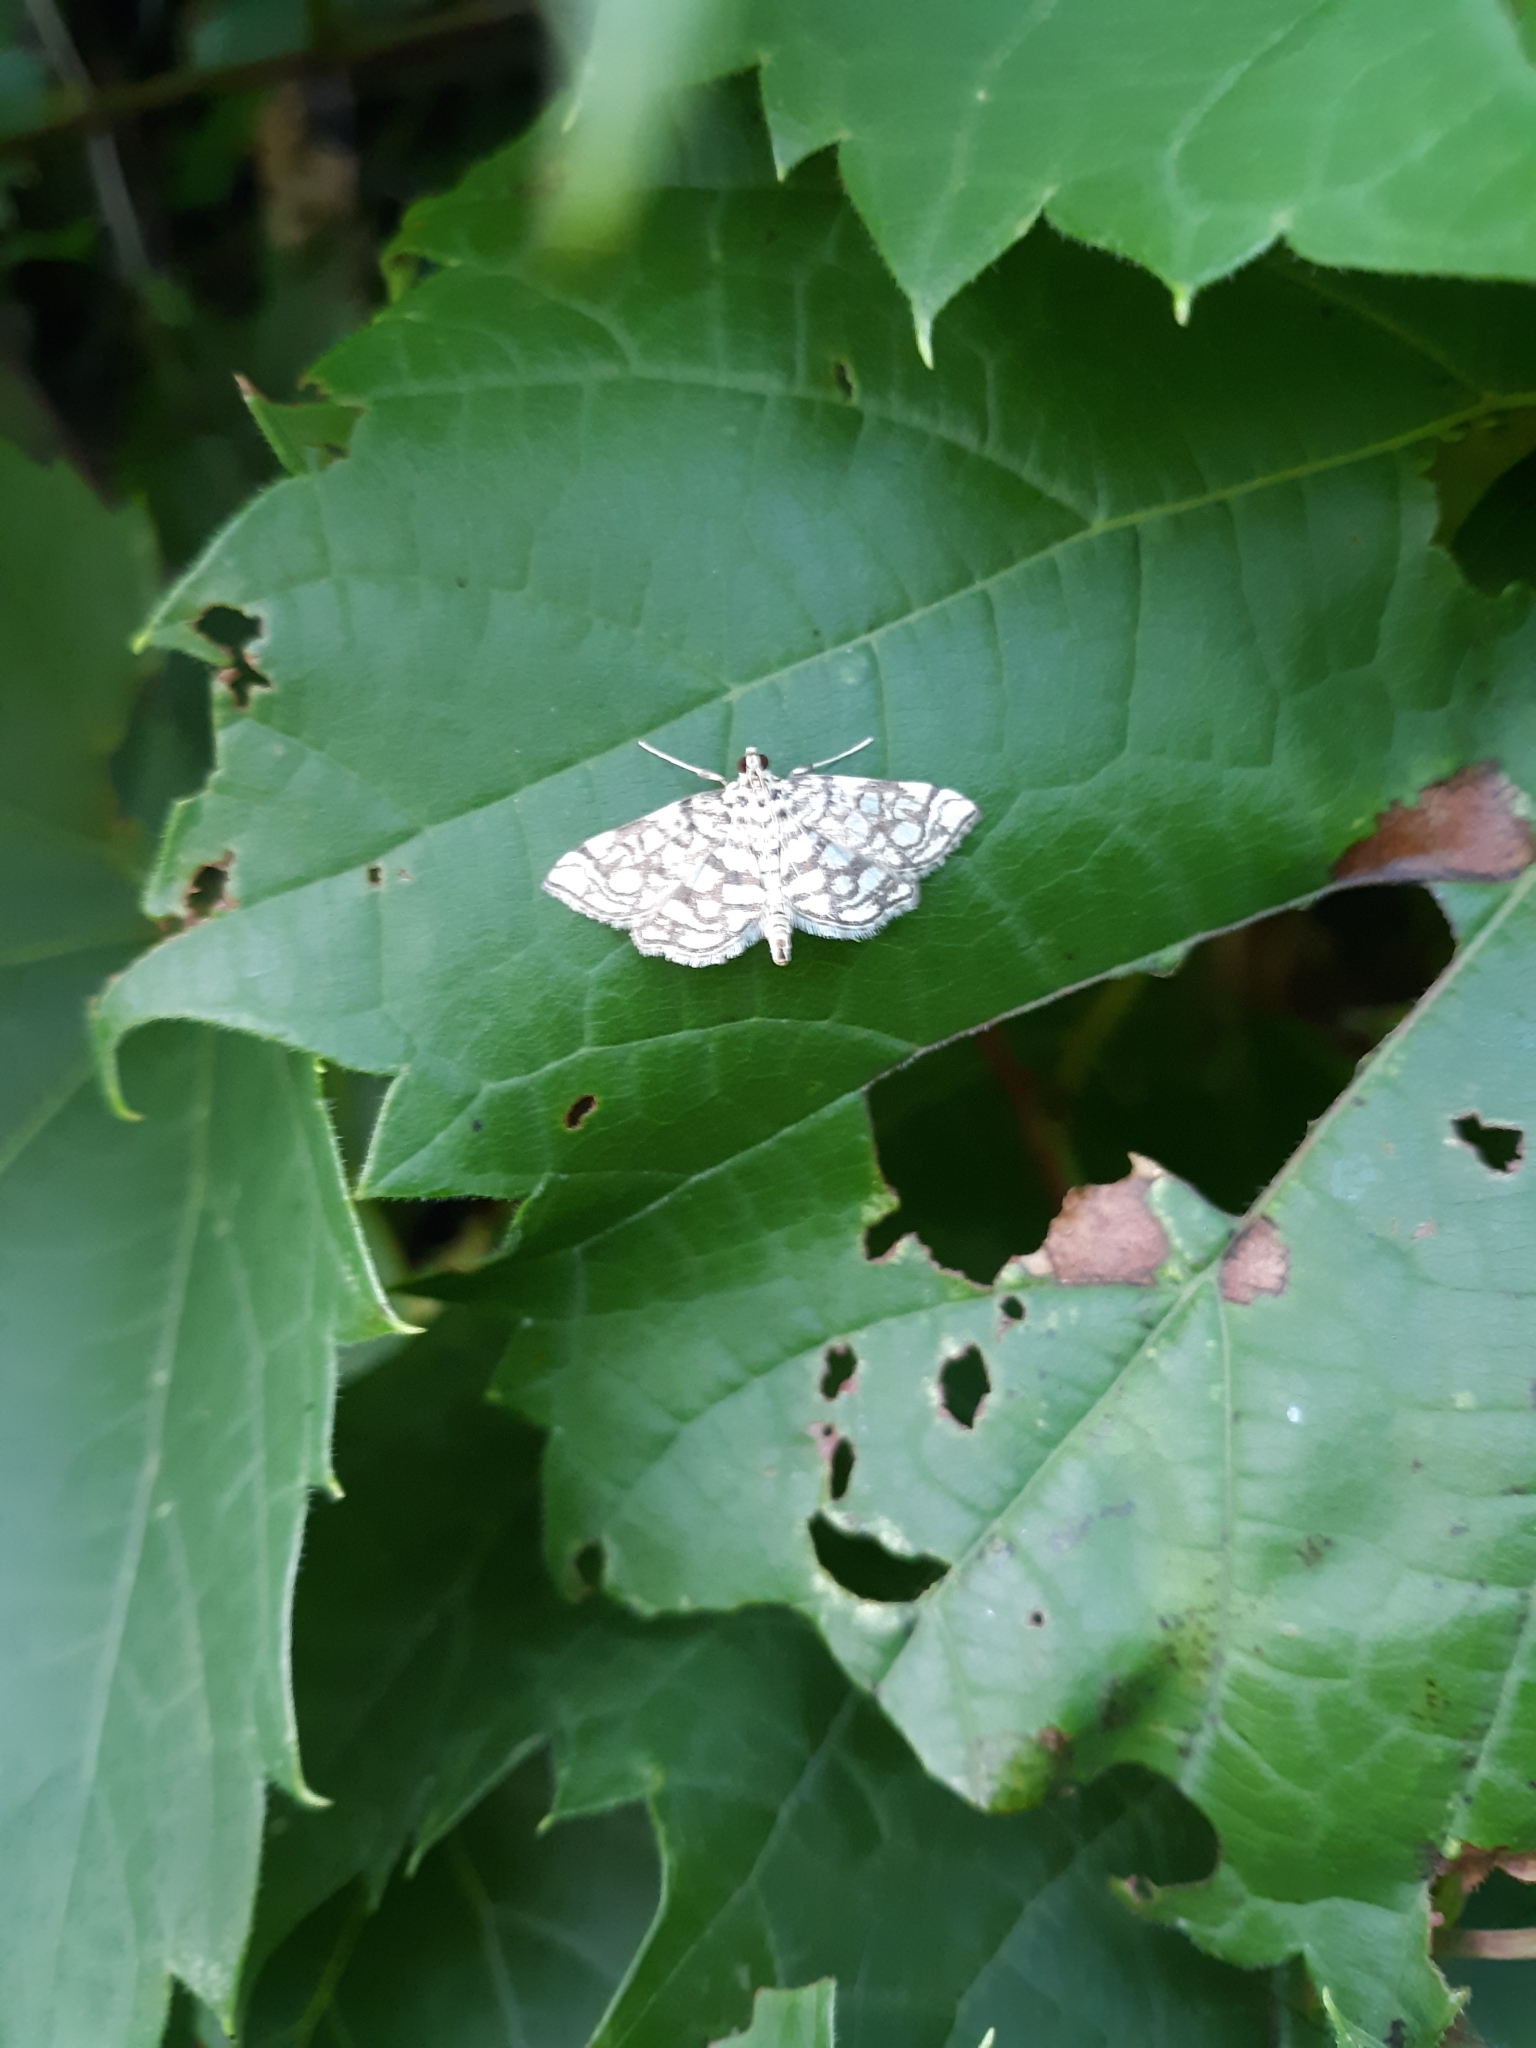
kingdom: Animalia
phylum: Arthropoda
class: Insecta
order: Lepidoptera
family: Crambidae
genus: Lygropia
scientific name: Lygropia rivulalis
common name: Bog lygropia moth
